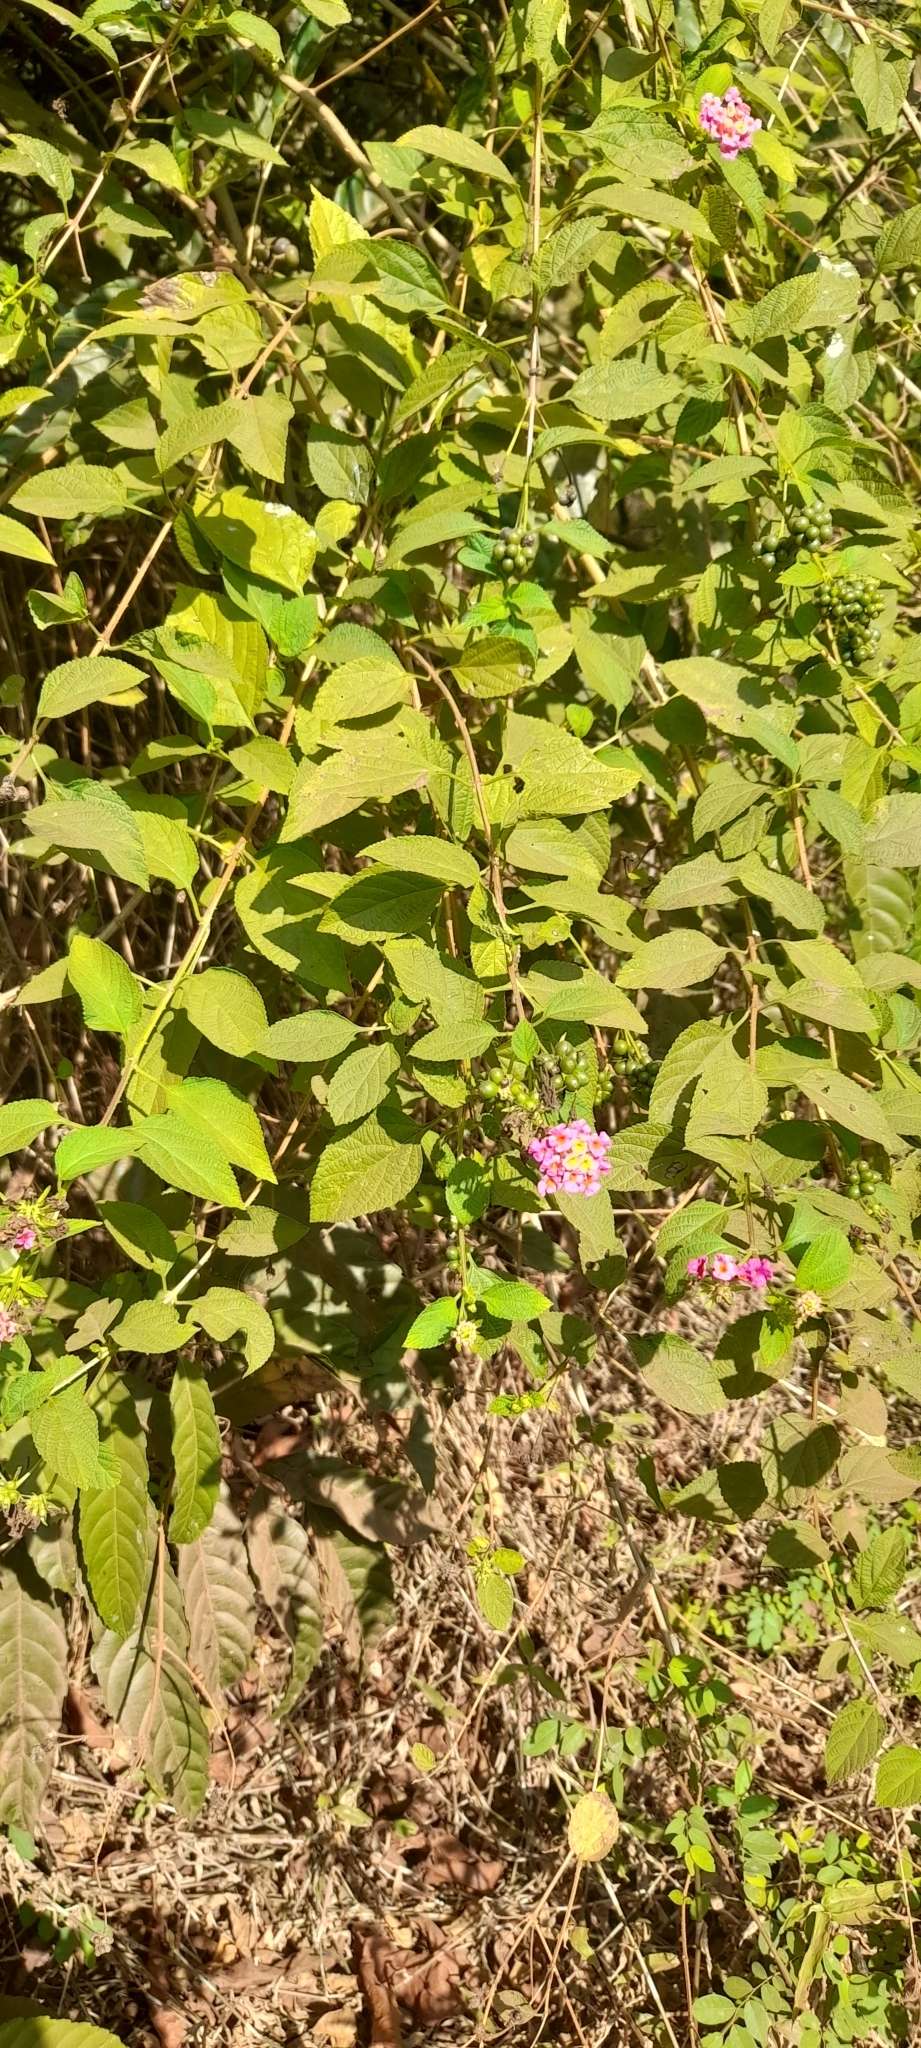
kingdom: Plantae
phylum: Tracheophyta
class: Magnoliopsida
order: Lamiales
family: Verbenaceae
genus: Lantana
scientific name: Lantana camara
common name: Lantana
